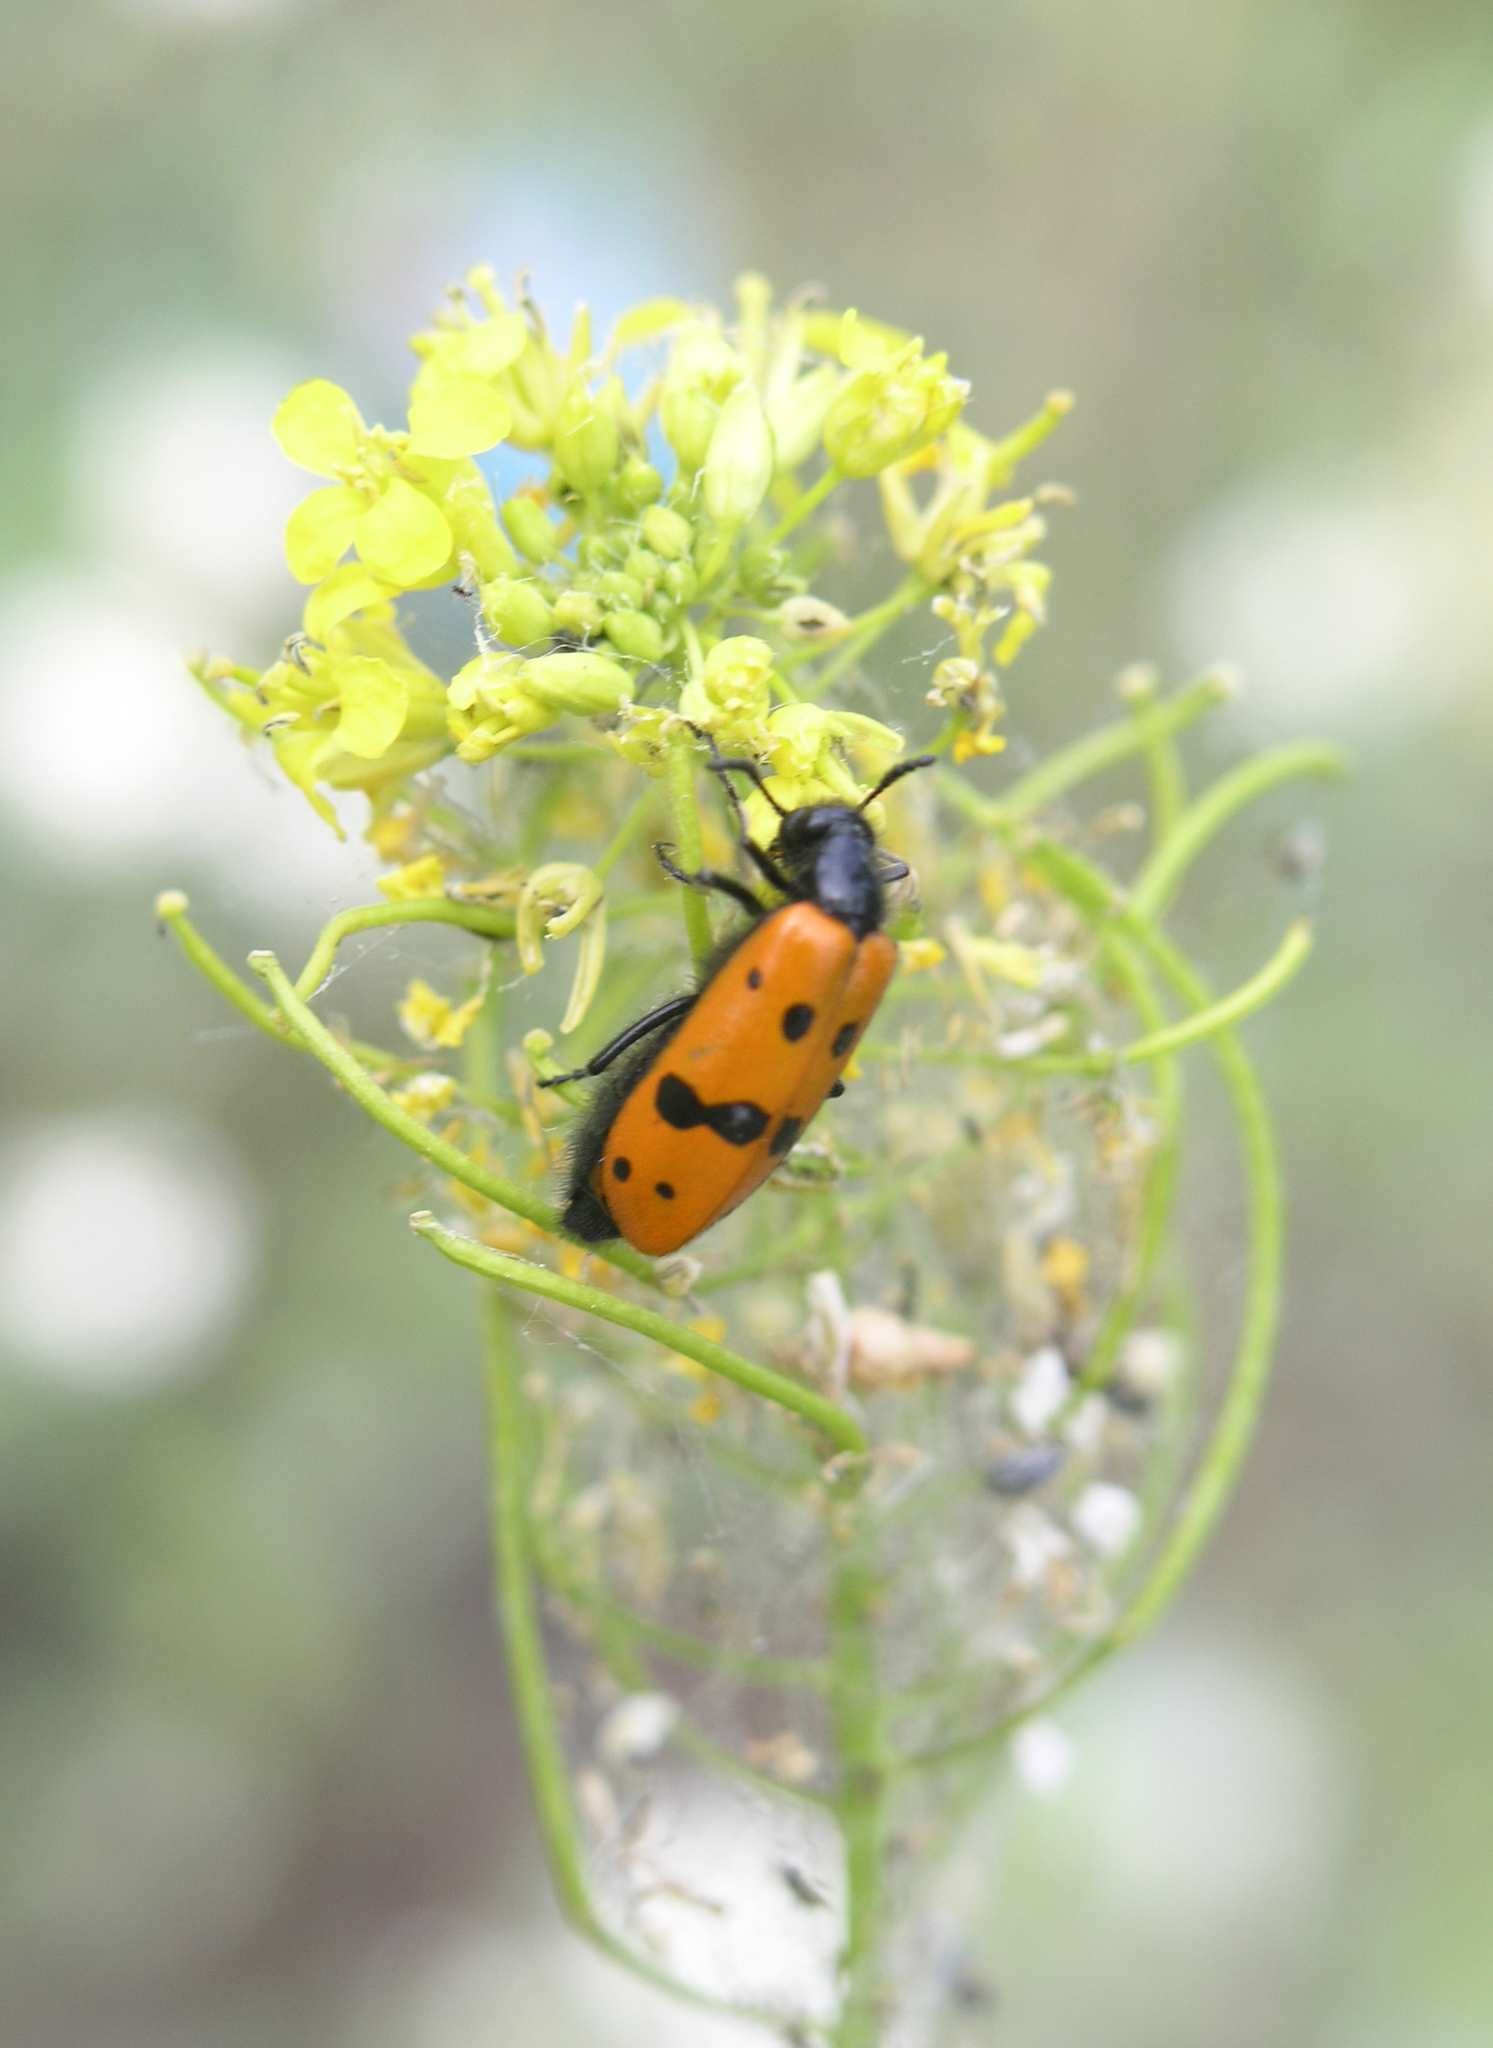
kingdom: Plantae
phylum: Tracheophyta
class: Magnoliopsida
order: Brassicales
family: Brassicaceae
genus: Sisymbrium
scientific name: Sisymbrium loeselii
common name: False london-rocket
